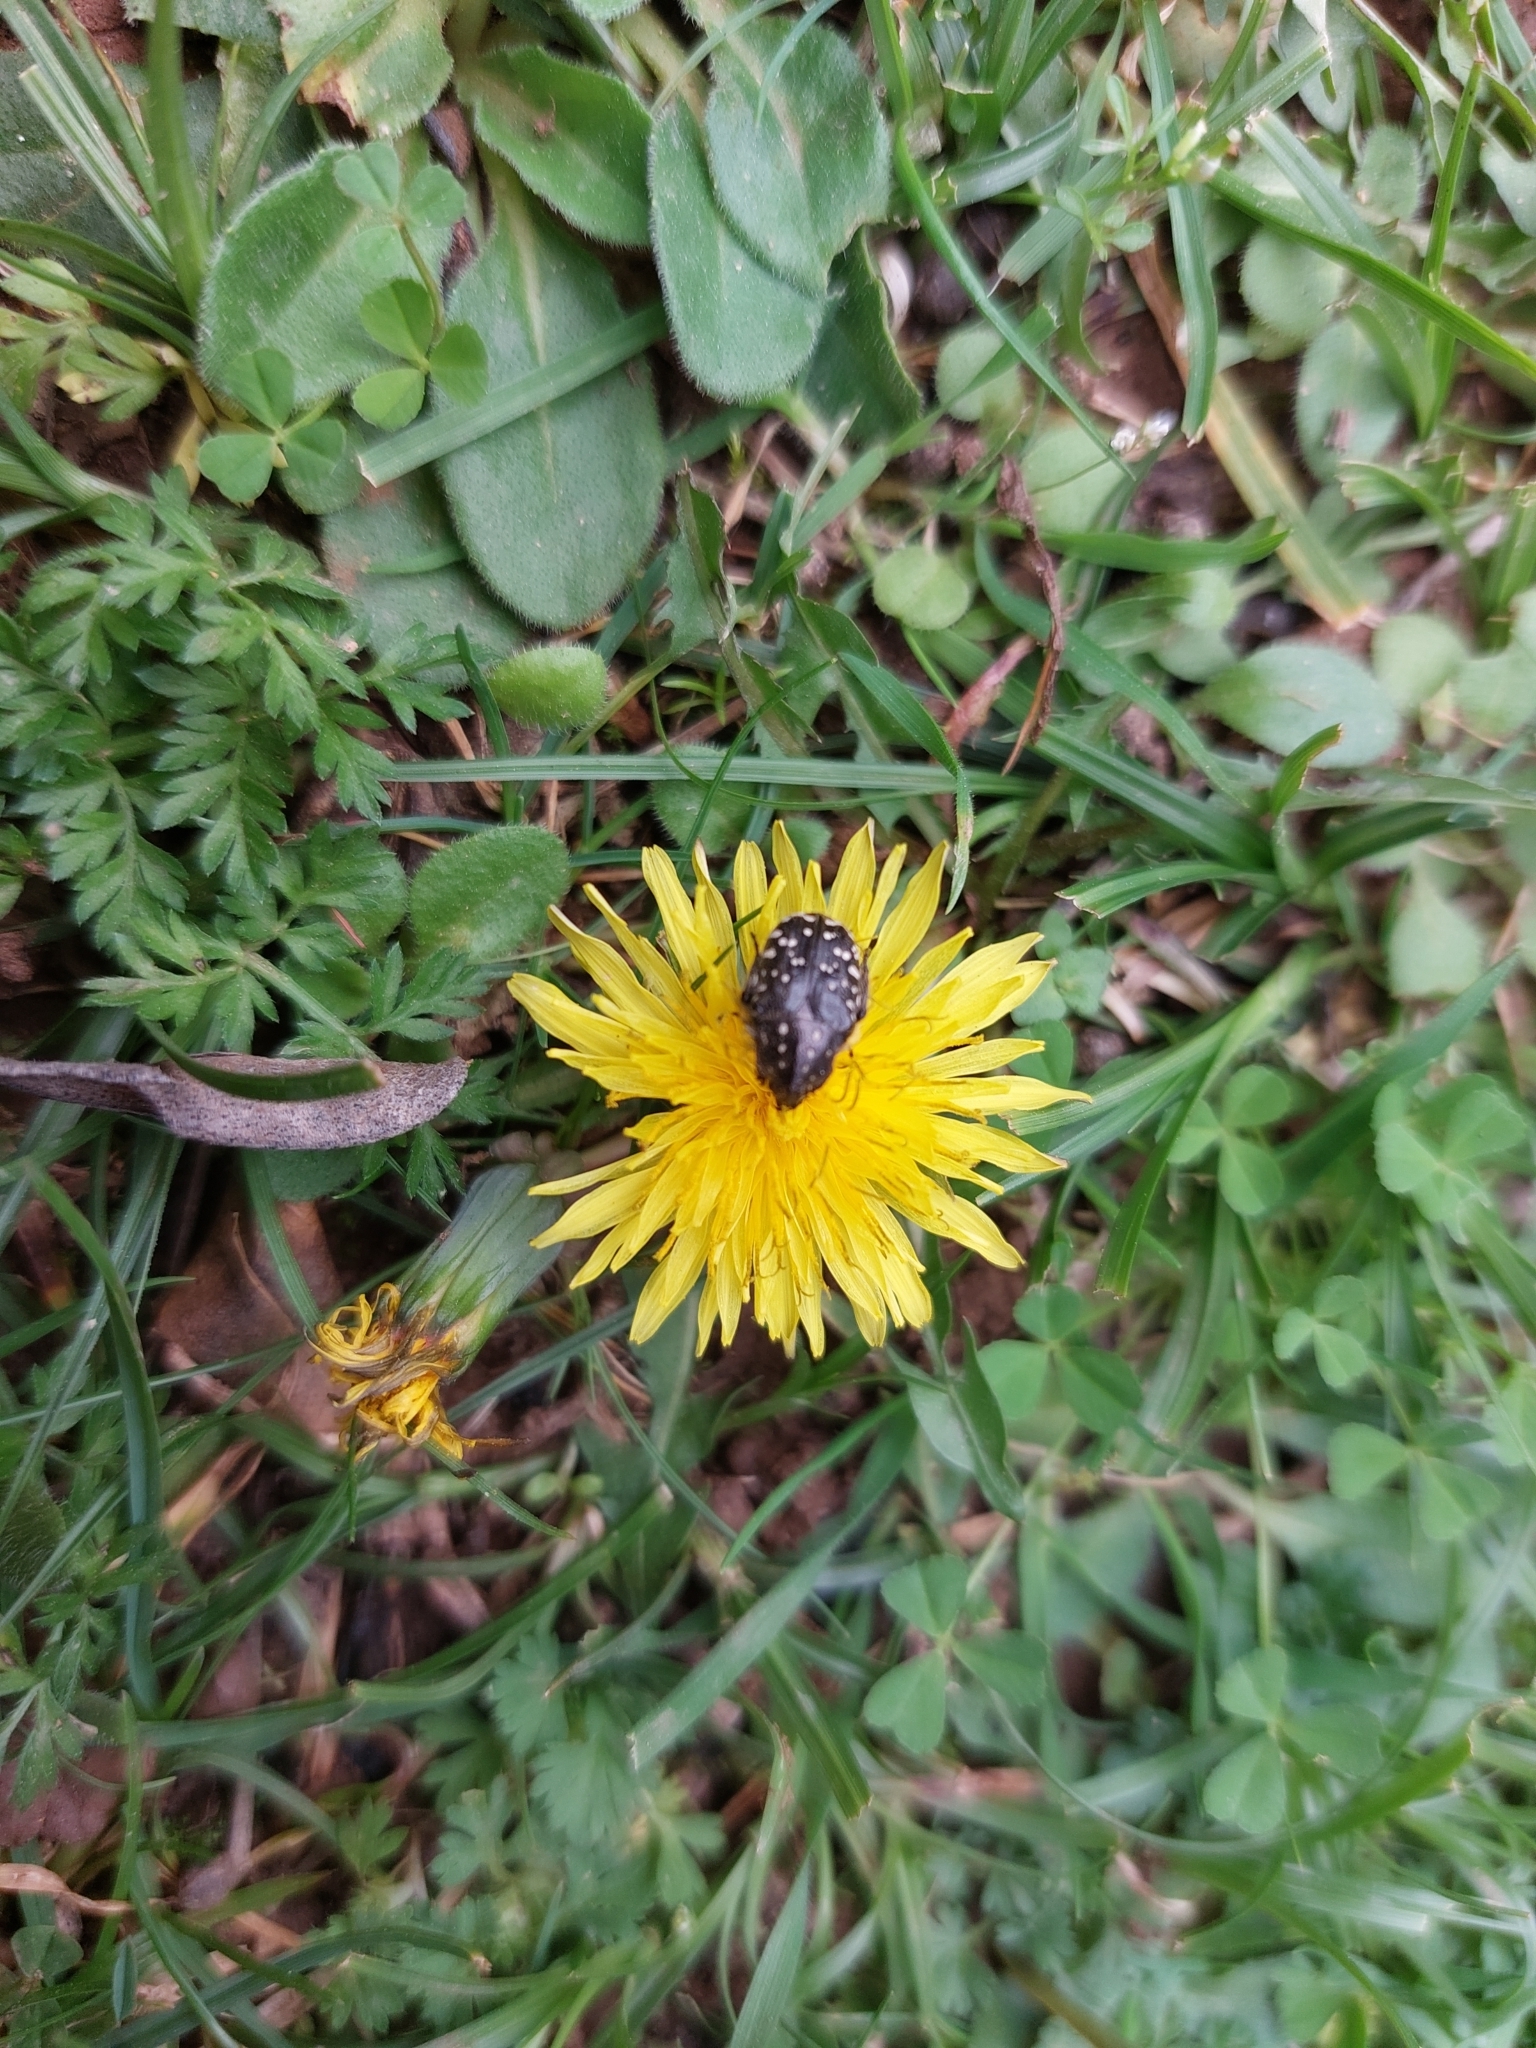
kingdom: Animalia
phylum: Arthropoda
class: Insecta
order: Coleoptera
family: Scarabaeidae
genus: Oxythyrea
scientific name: Oxythyrea funesta
